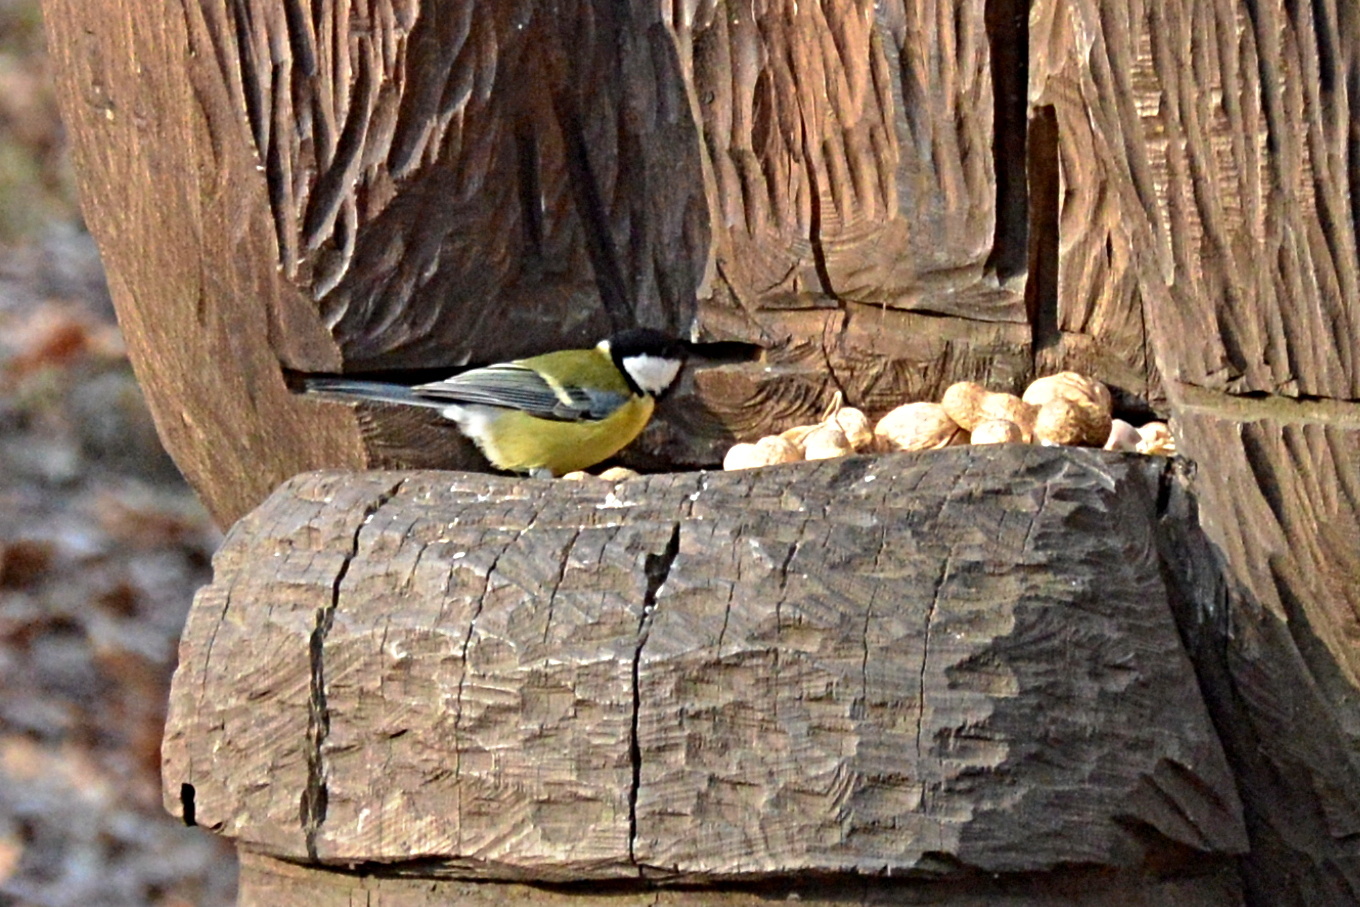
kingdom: Animalia
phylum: Chordata
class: Aves
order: Passeriformes
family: Paridae
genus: Parus
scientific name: Parus major
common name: Great tit
